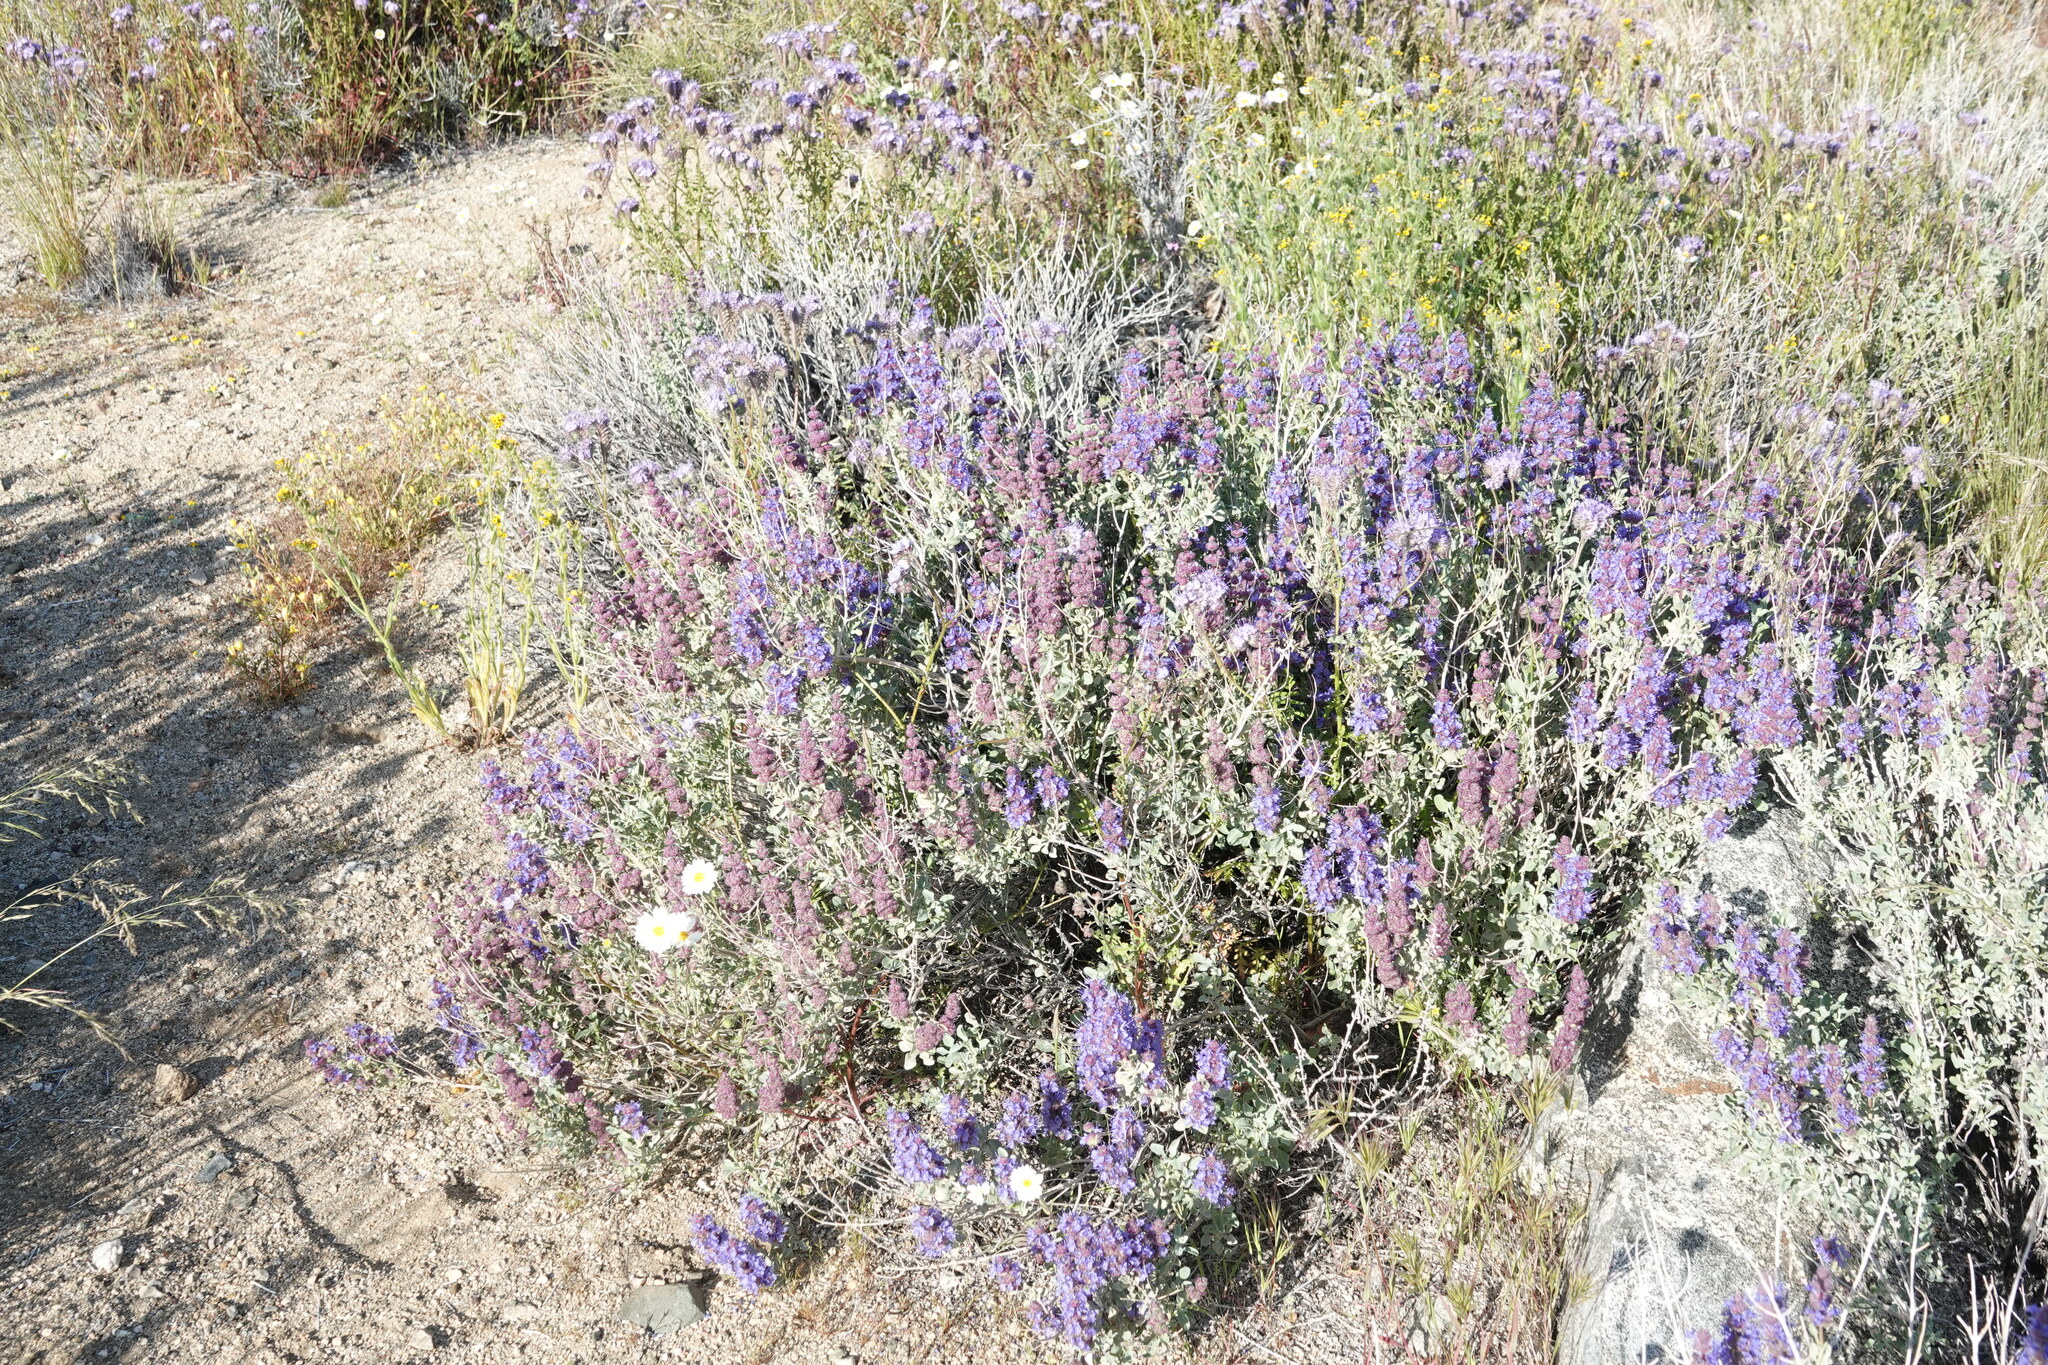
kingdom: Plantae
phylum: Tracheophyta
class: Magnoliopsida
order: Lamiales
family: Lamiaceae
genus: Salvia
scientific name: Salvia dorrii
